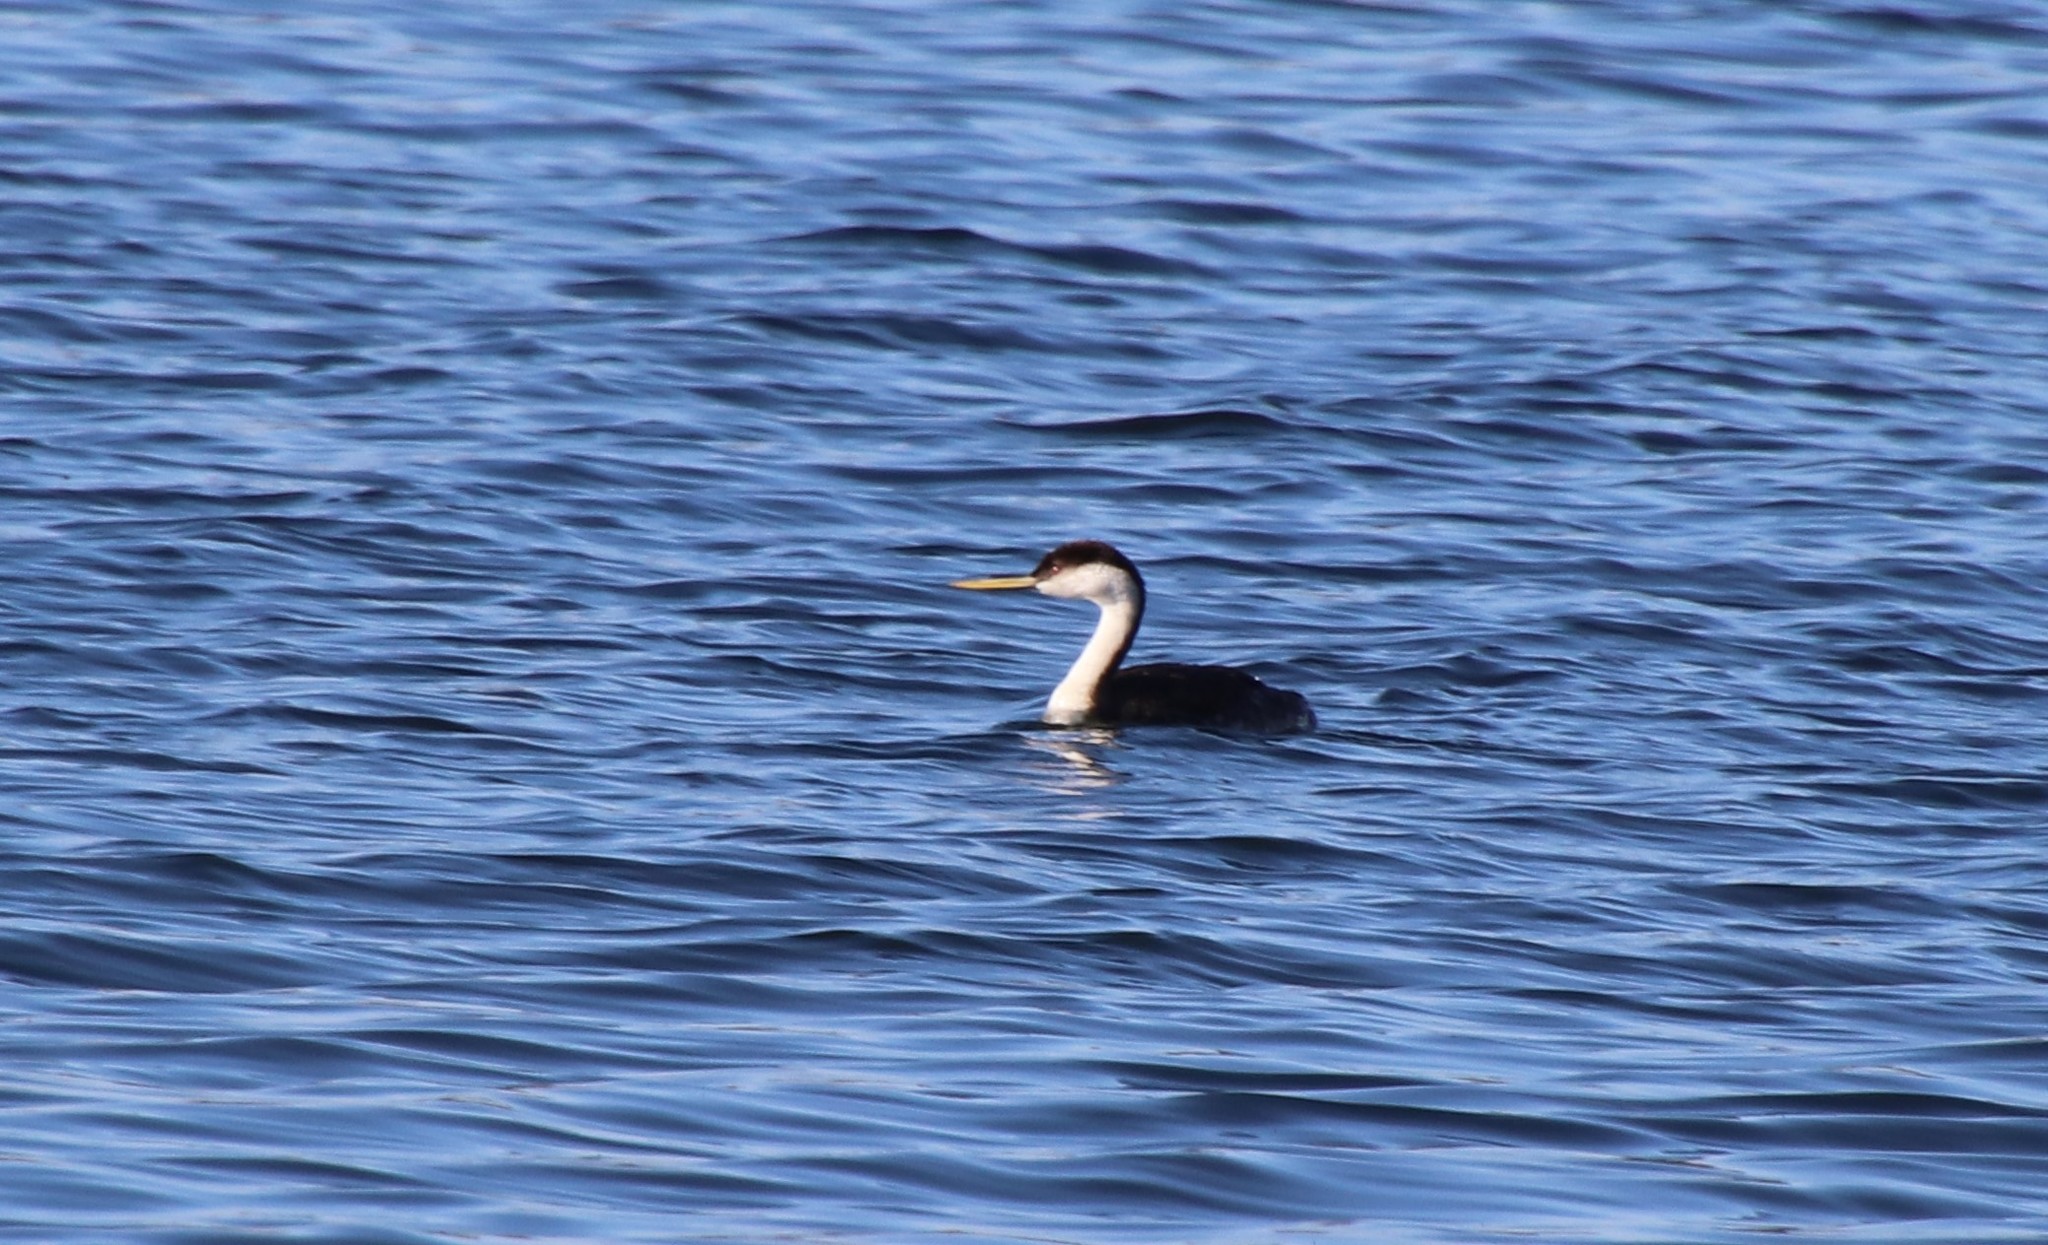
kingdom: Animalia
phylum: Chordata
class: Aves
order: Podicipediformes
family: Podicipedidae
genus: Aechmophorus
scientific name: Aechmophorus occidentalis
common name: Western grebe
